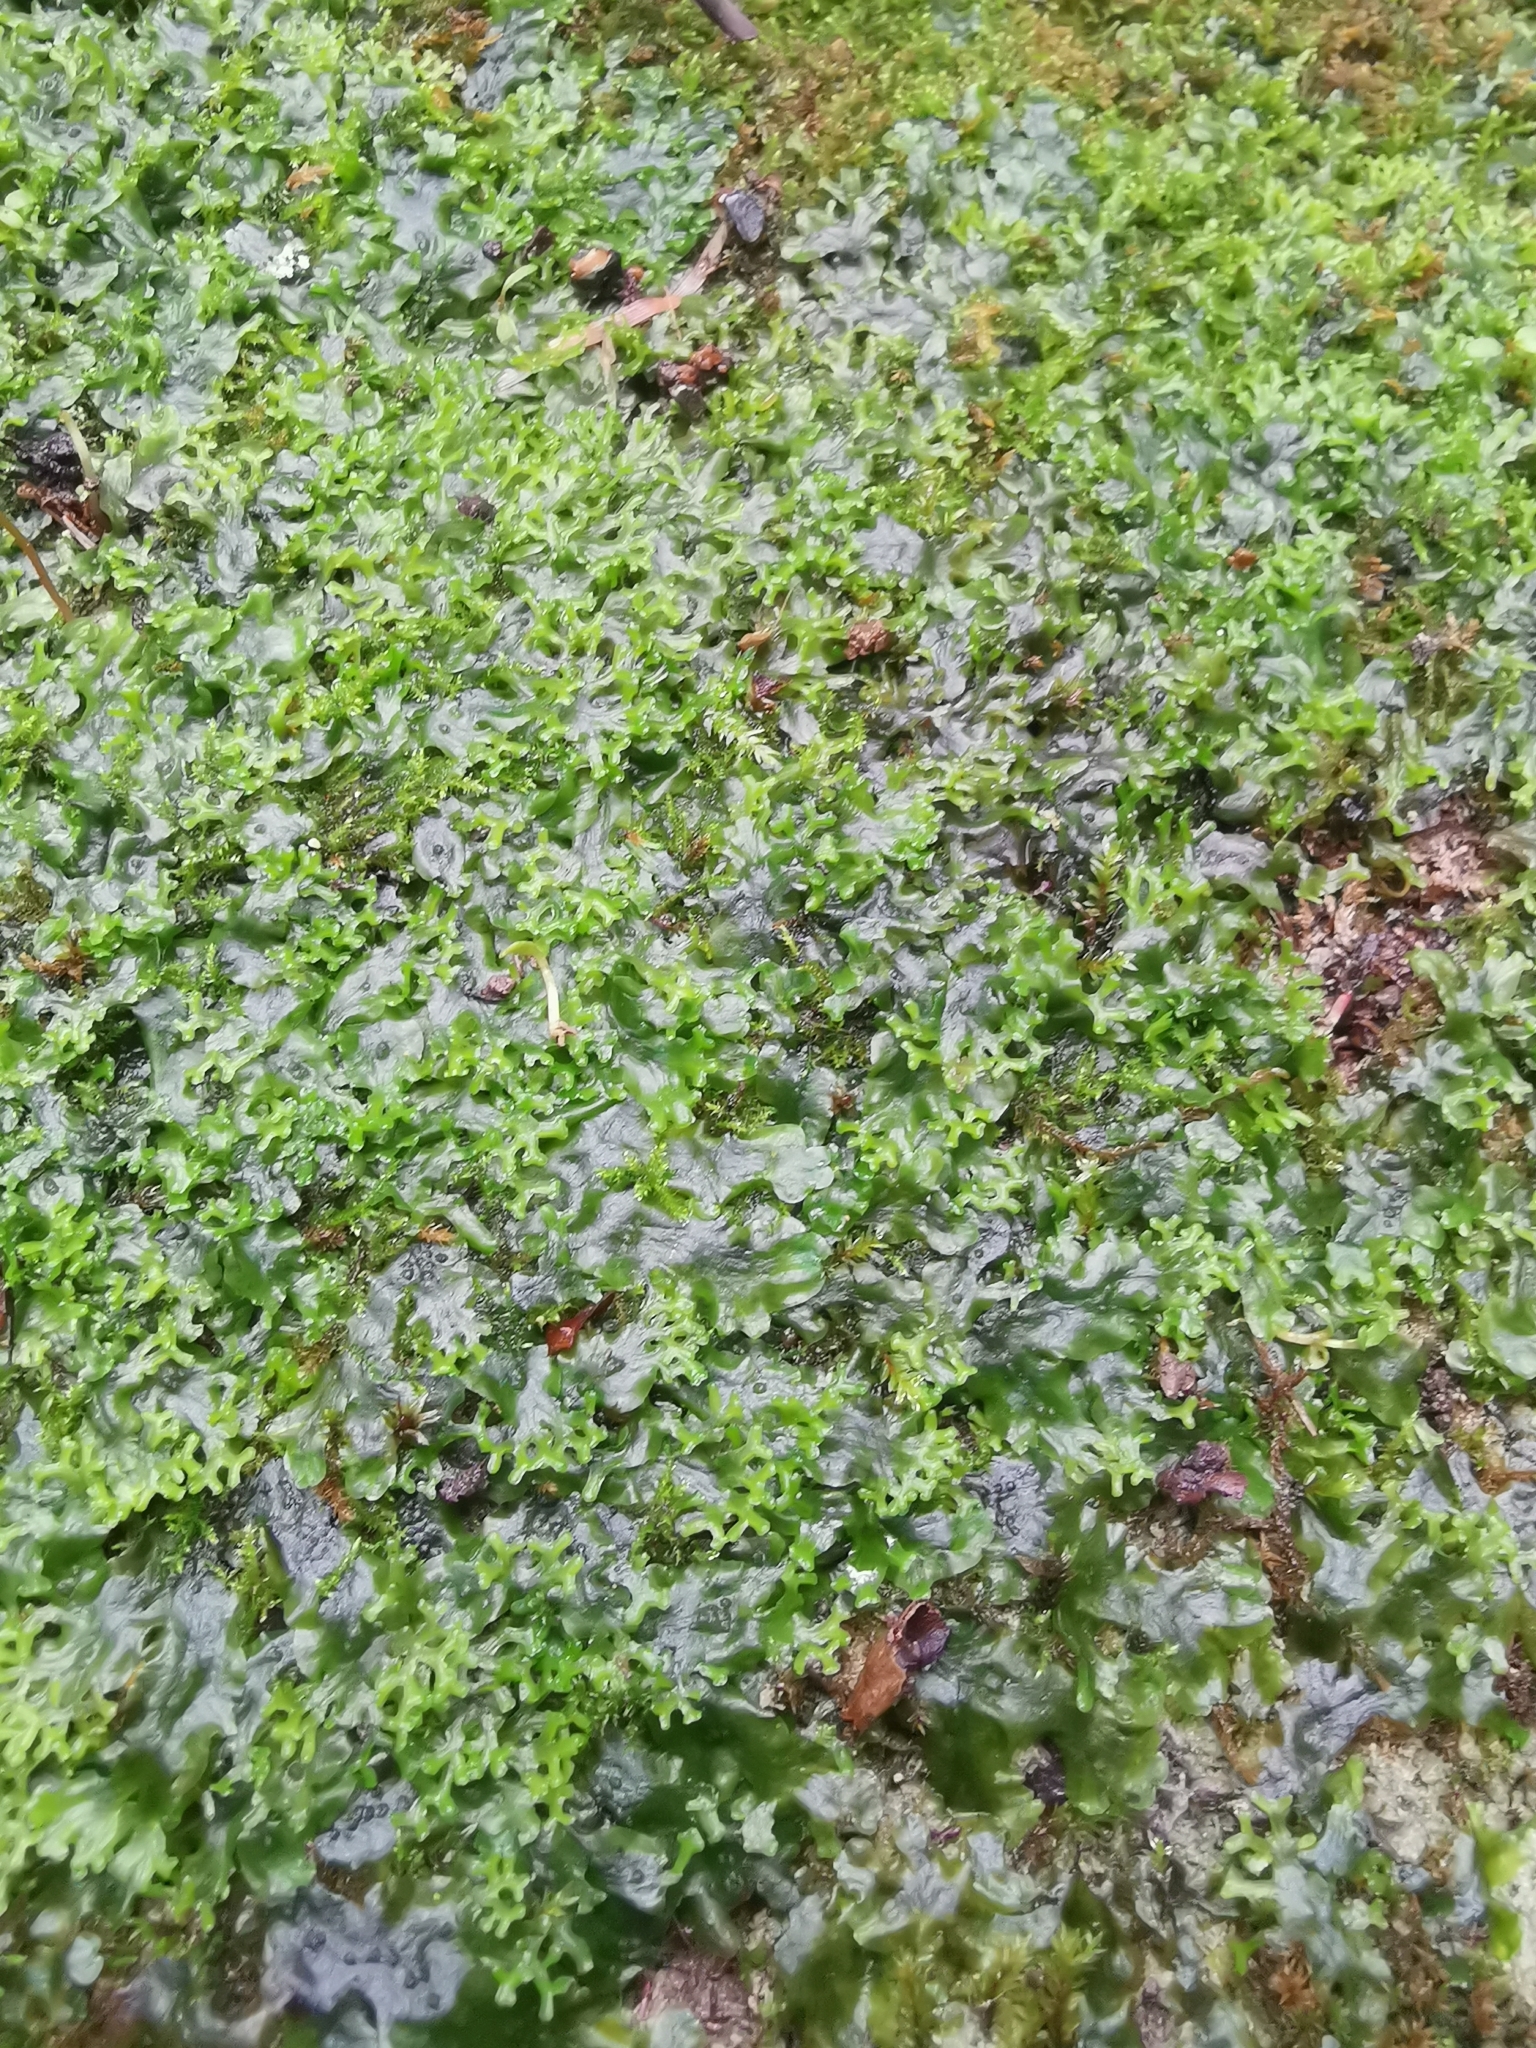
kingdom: Plantae
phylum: Marchantiophyta
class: Jungermanniopsida
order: Pelliales
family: Pelliaceae
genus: Apopellia
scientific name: Apopellia endiviifolia
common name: Endive pellia
